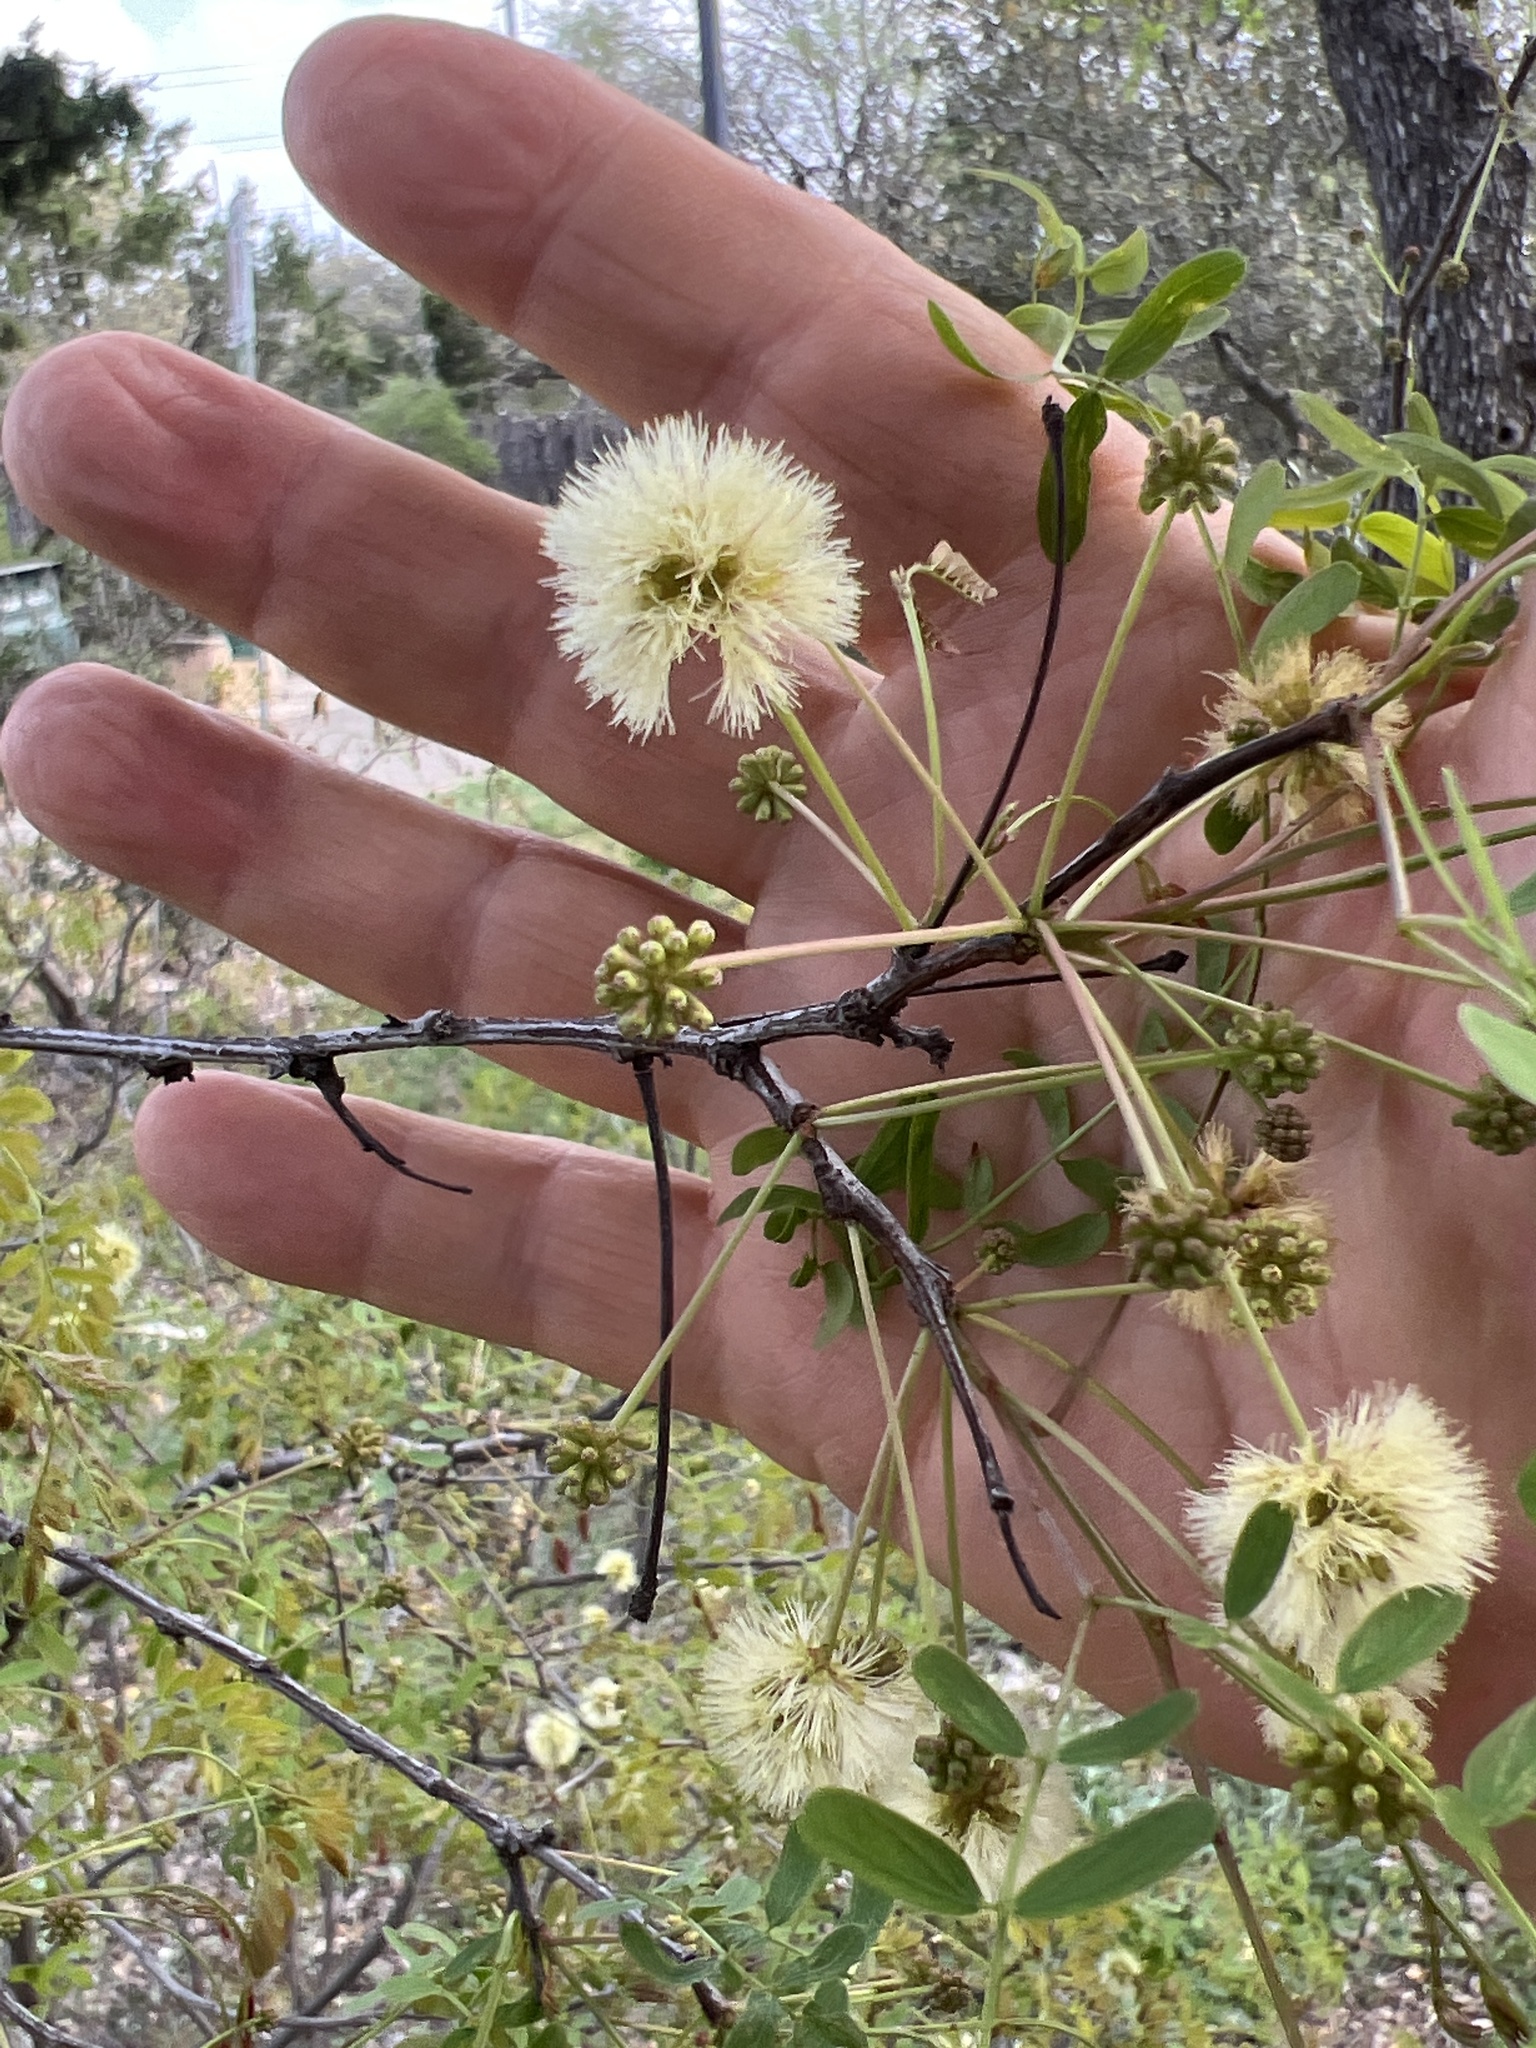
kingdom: Plantae
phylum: Tracheophyta
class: Magnoliopsida
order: Fabales
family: Fabaceae
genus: Senegalia
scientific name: Senegalia roemeriana
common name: Roemer's acacia
